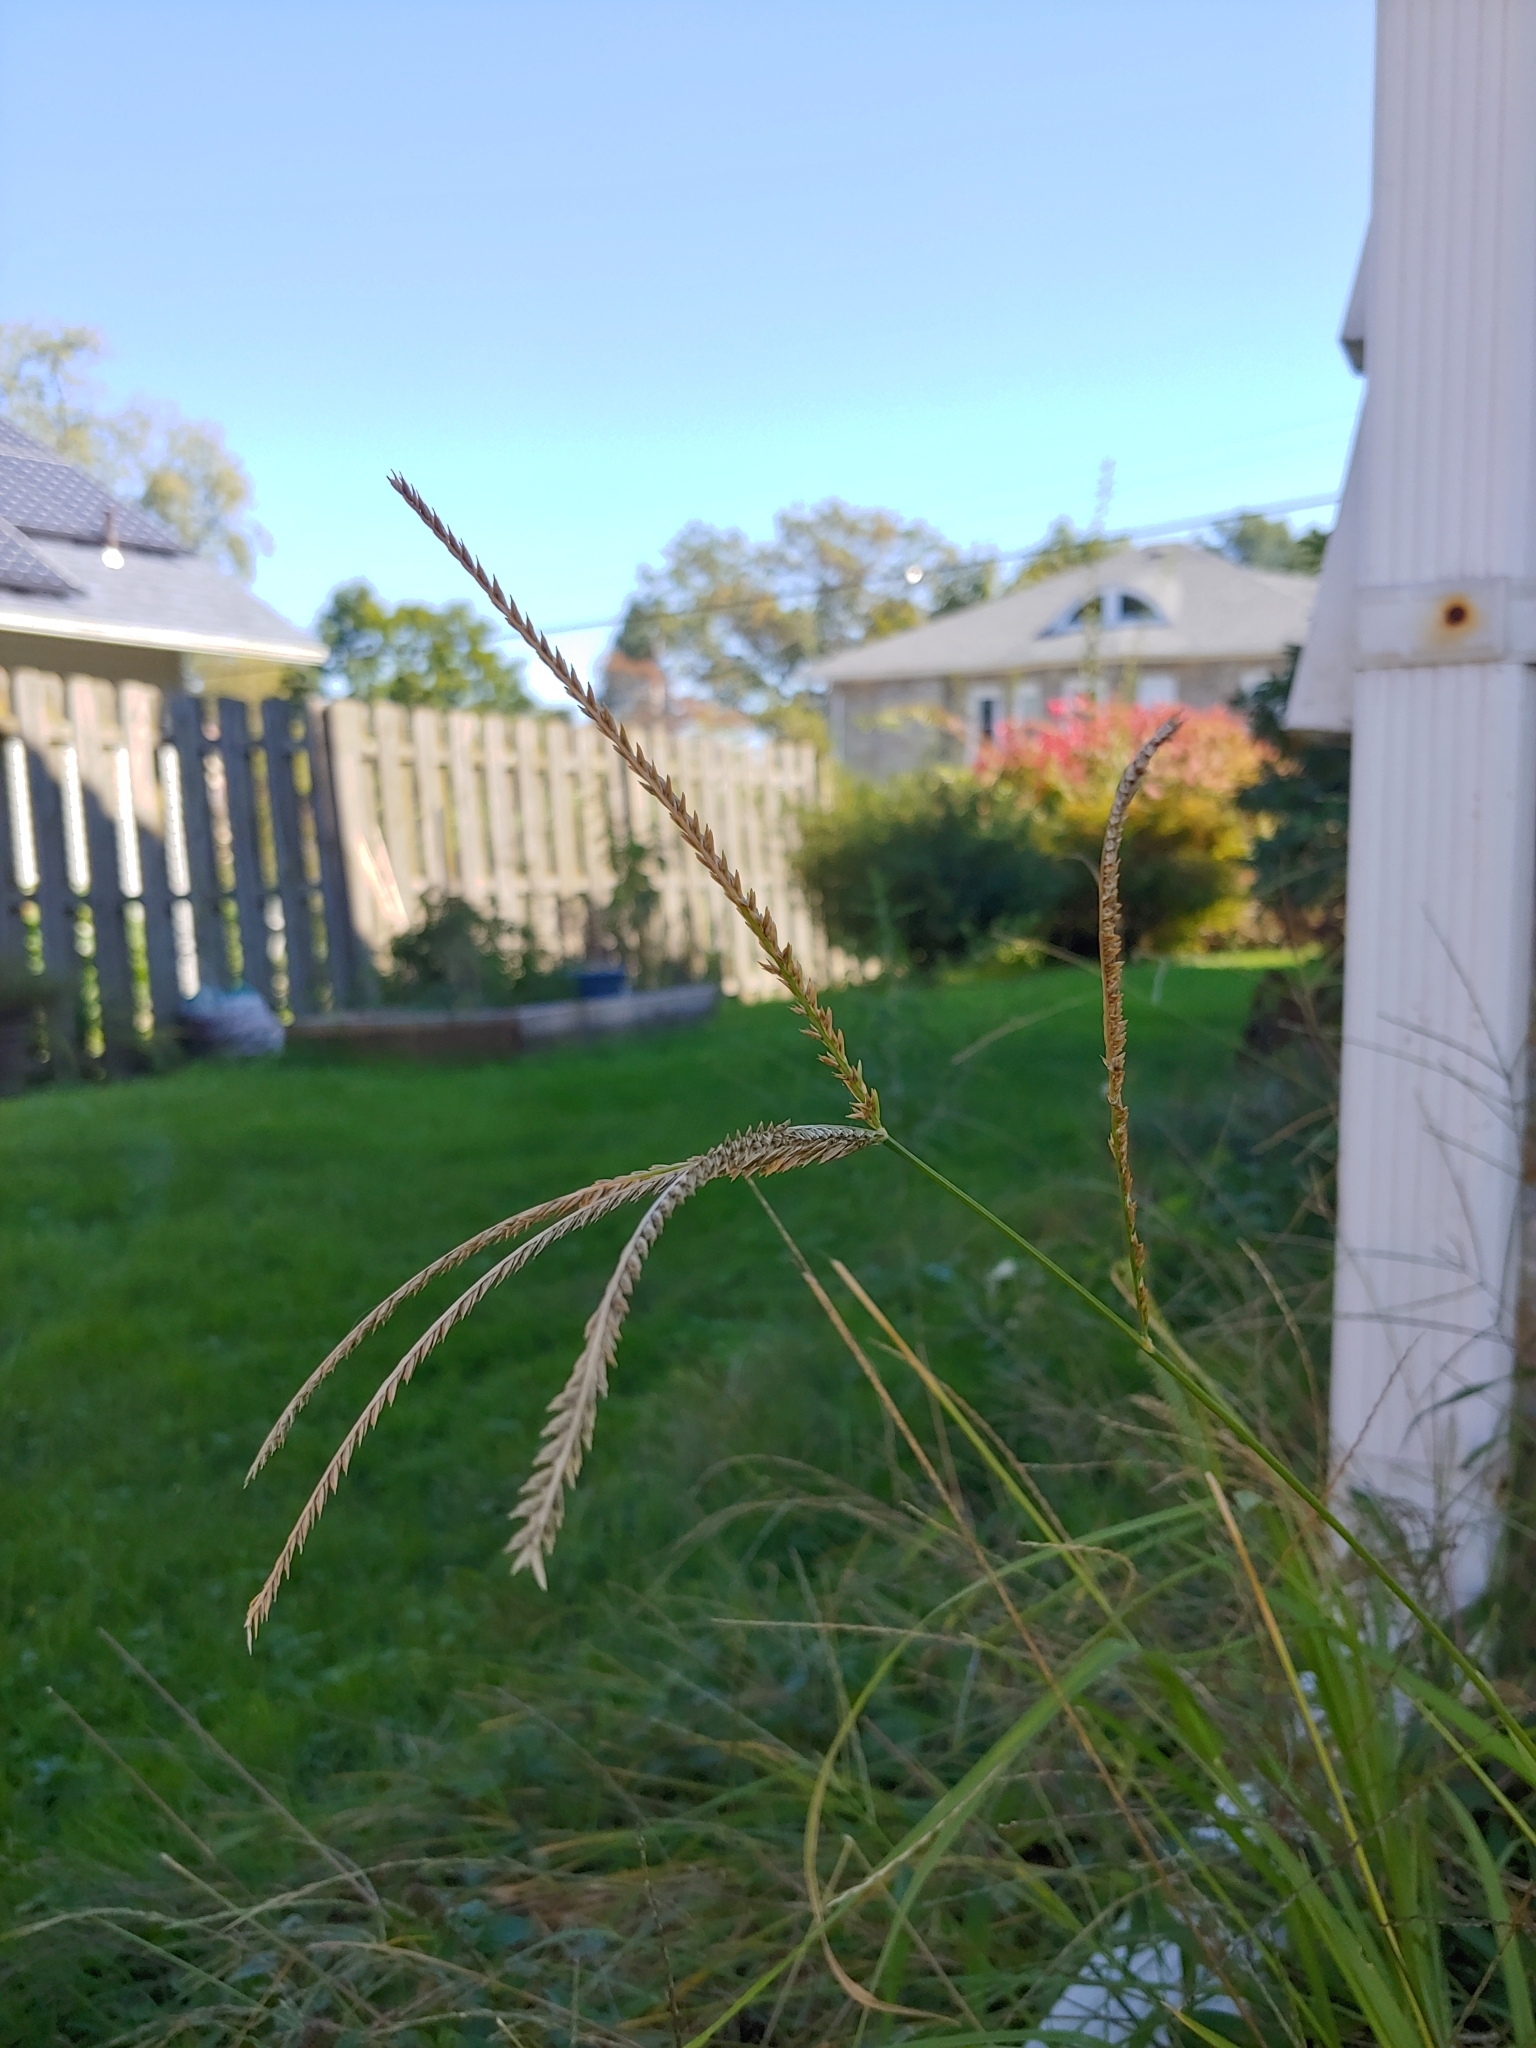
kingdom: Plantae
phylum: Tracheophyta
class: Liliopsida
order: Poales
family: Poaceae
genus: Eleusine
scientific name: Eleusine indica
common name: Yard-grass
